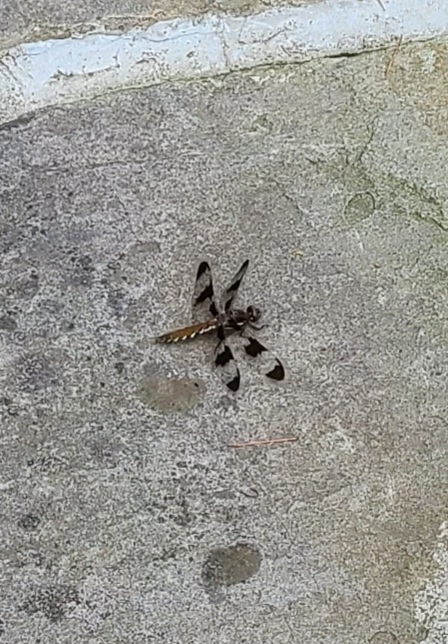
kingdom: Animalia
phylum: Arthropoda
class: Insecta
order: Odonata
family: Libellulidae
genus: Plathemis
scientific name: Plathemis lydia
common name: Common whitetail
